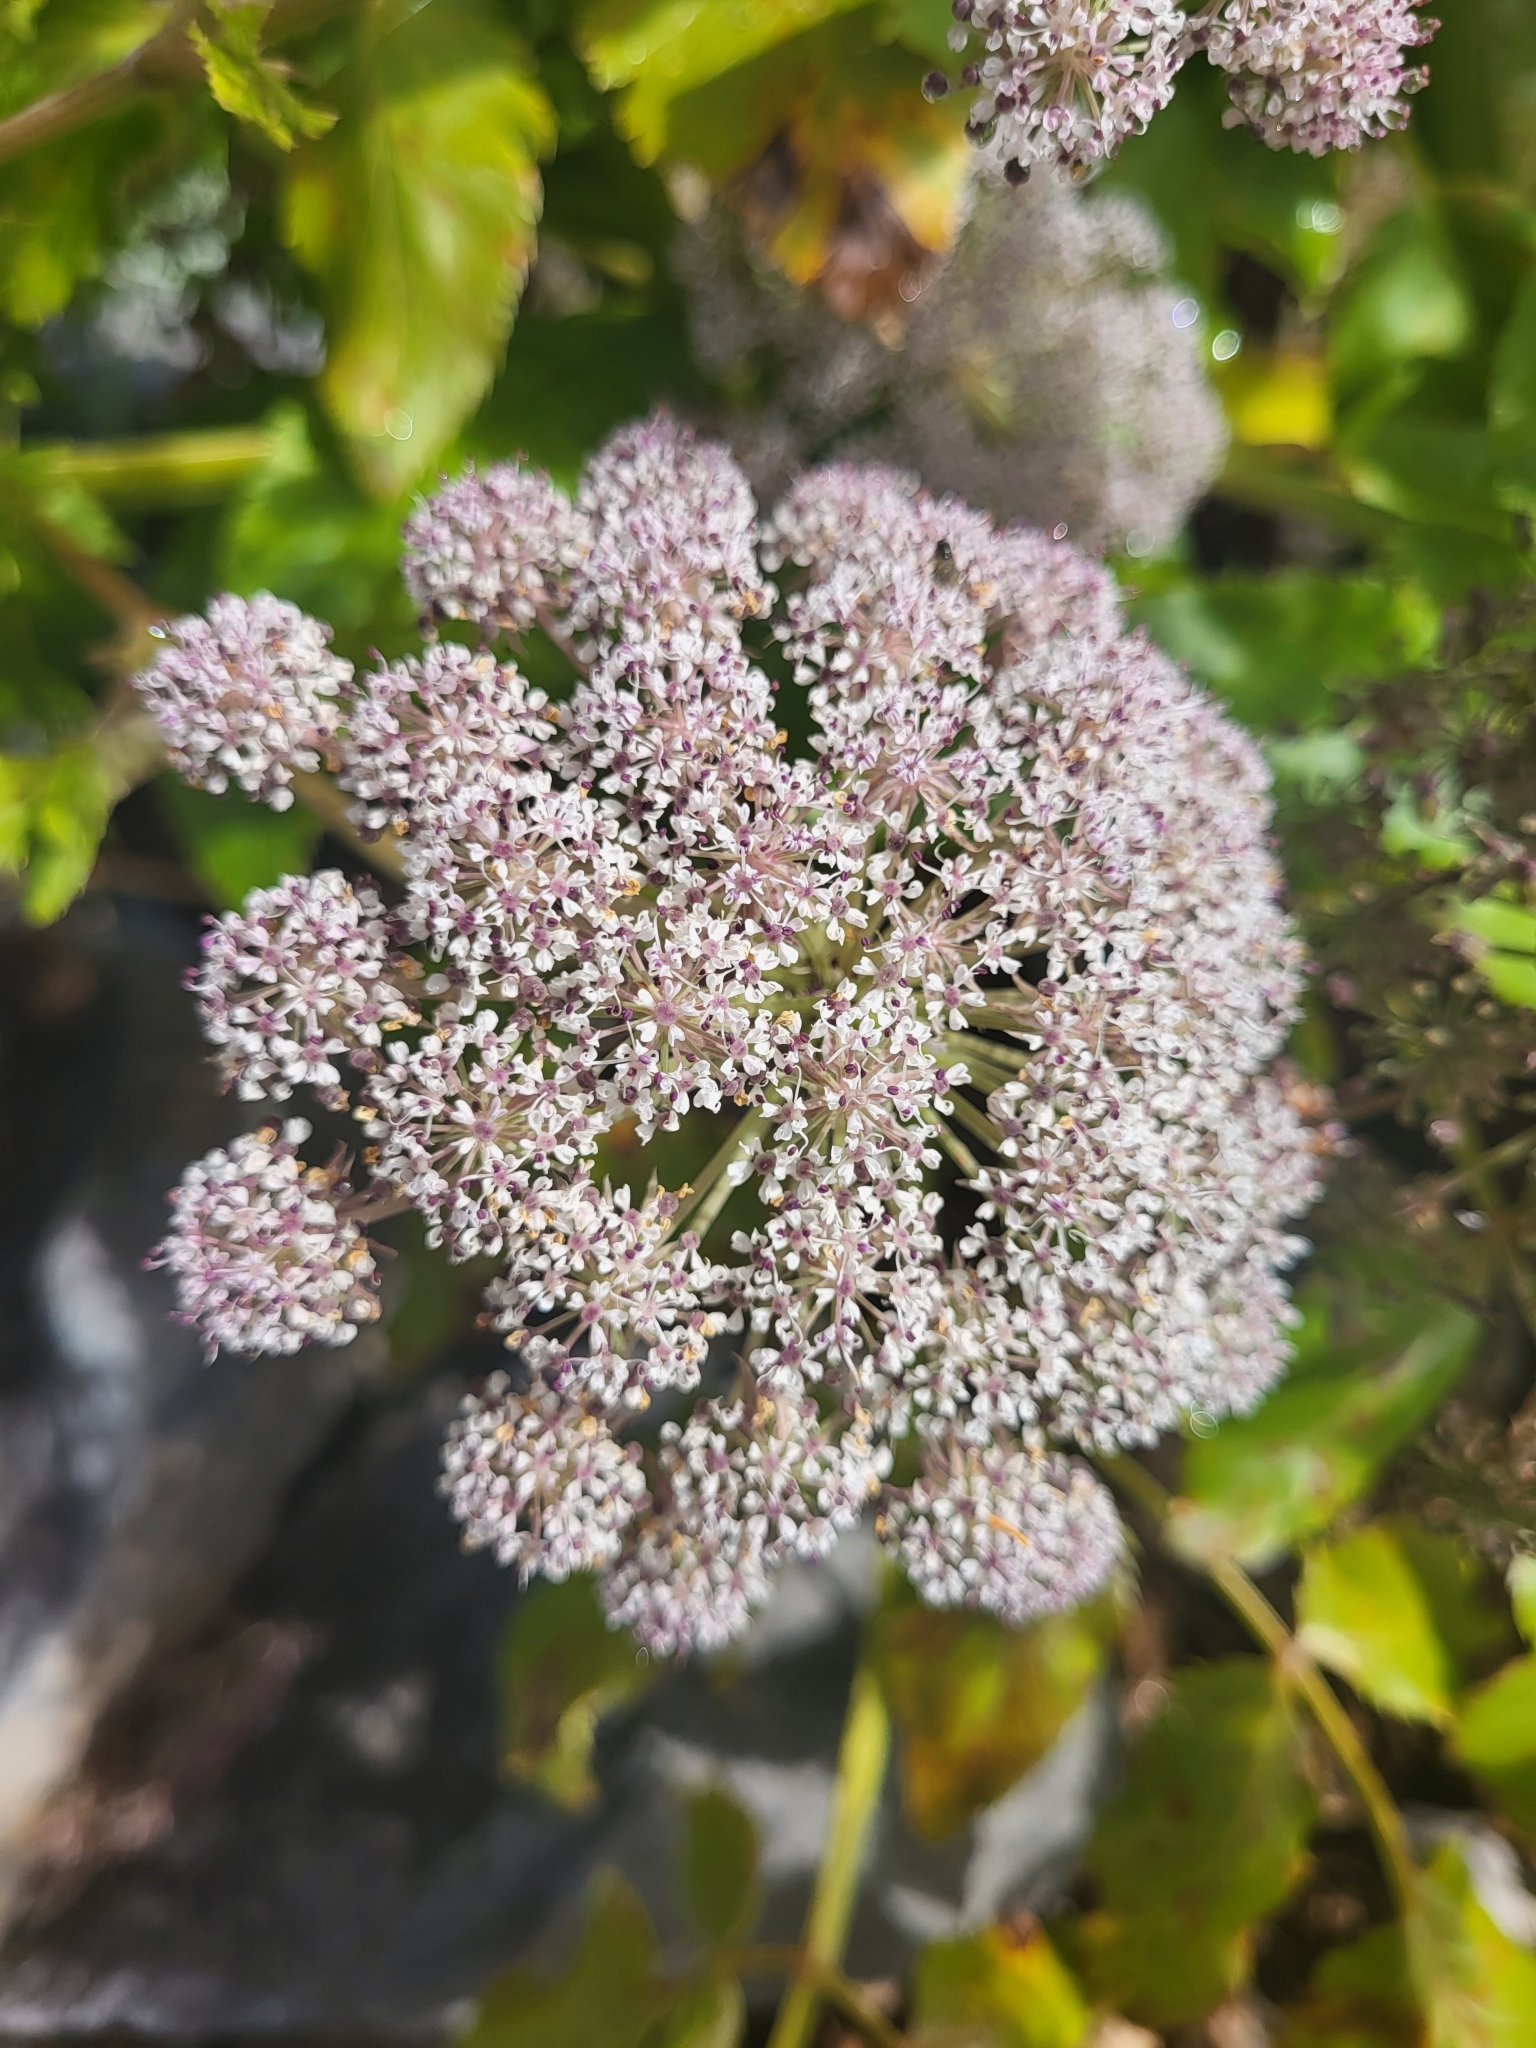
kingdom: Plantae
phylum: Tracheophyta
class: Magnoliopsida
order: Apiales
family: Apiaceae
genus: Daucus
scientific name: Daucus decipiens
